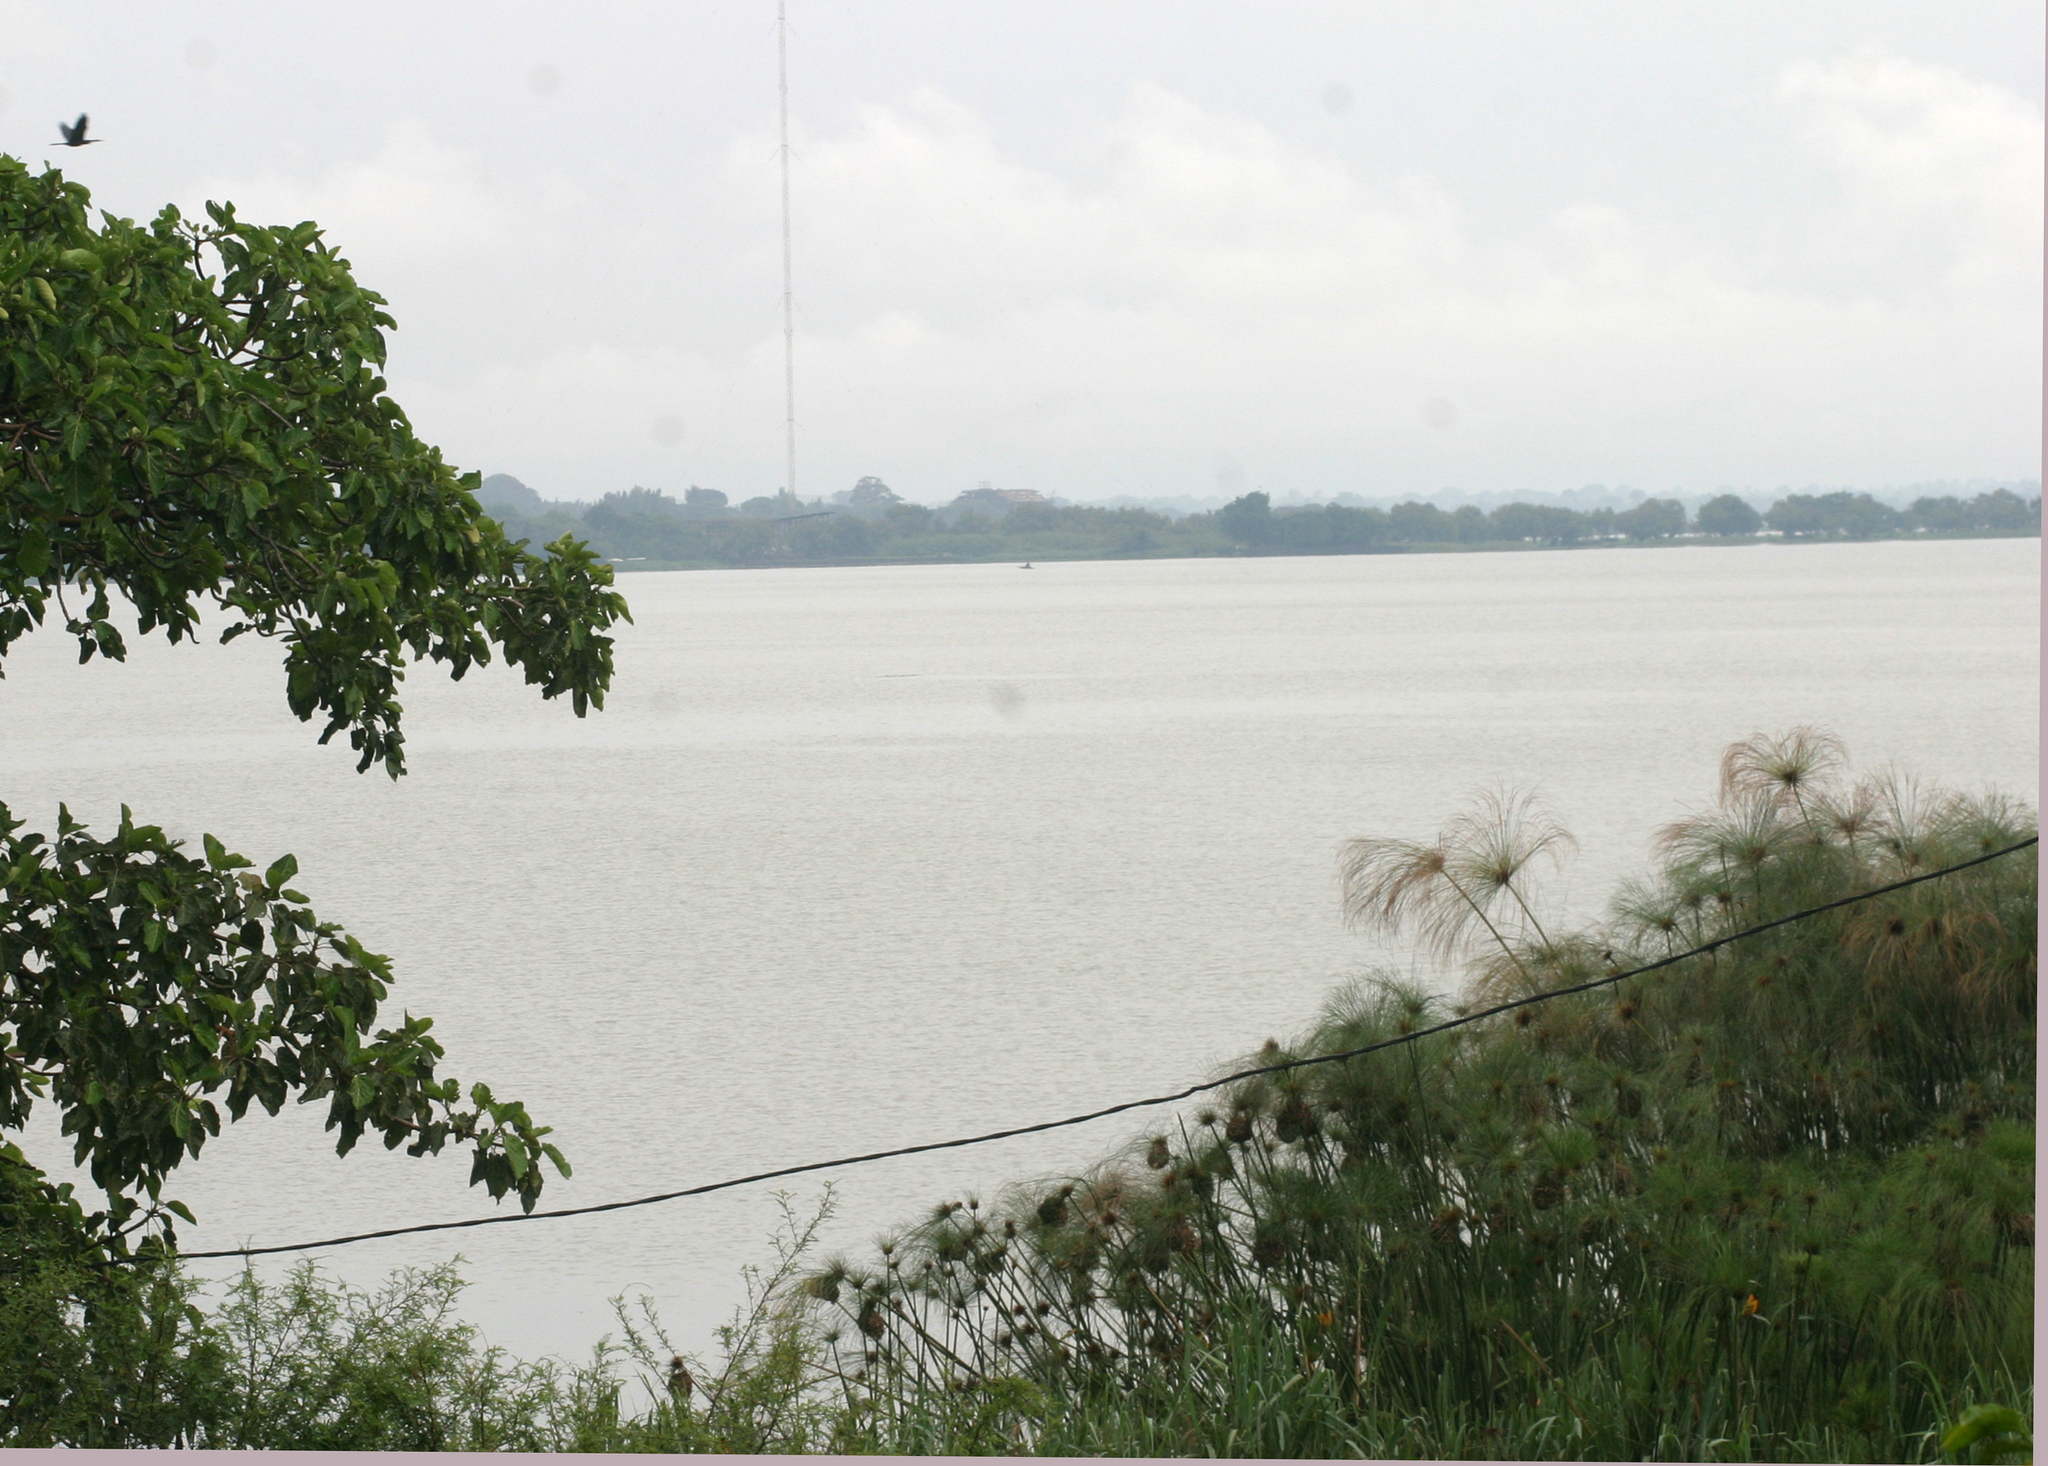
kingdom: Plantae
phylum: Tracheophyta
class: Liliopsida
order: Poales
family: Cyperaceae
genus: Cyperus
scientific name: Cyperus papyrus
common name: Papyrus
